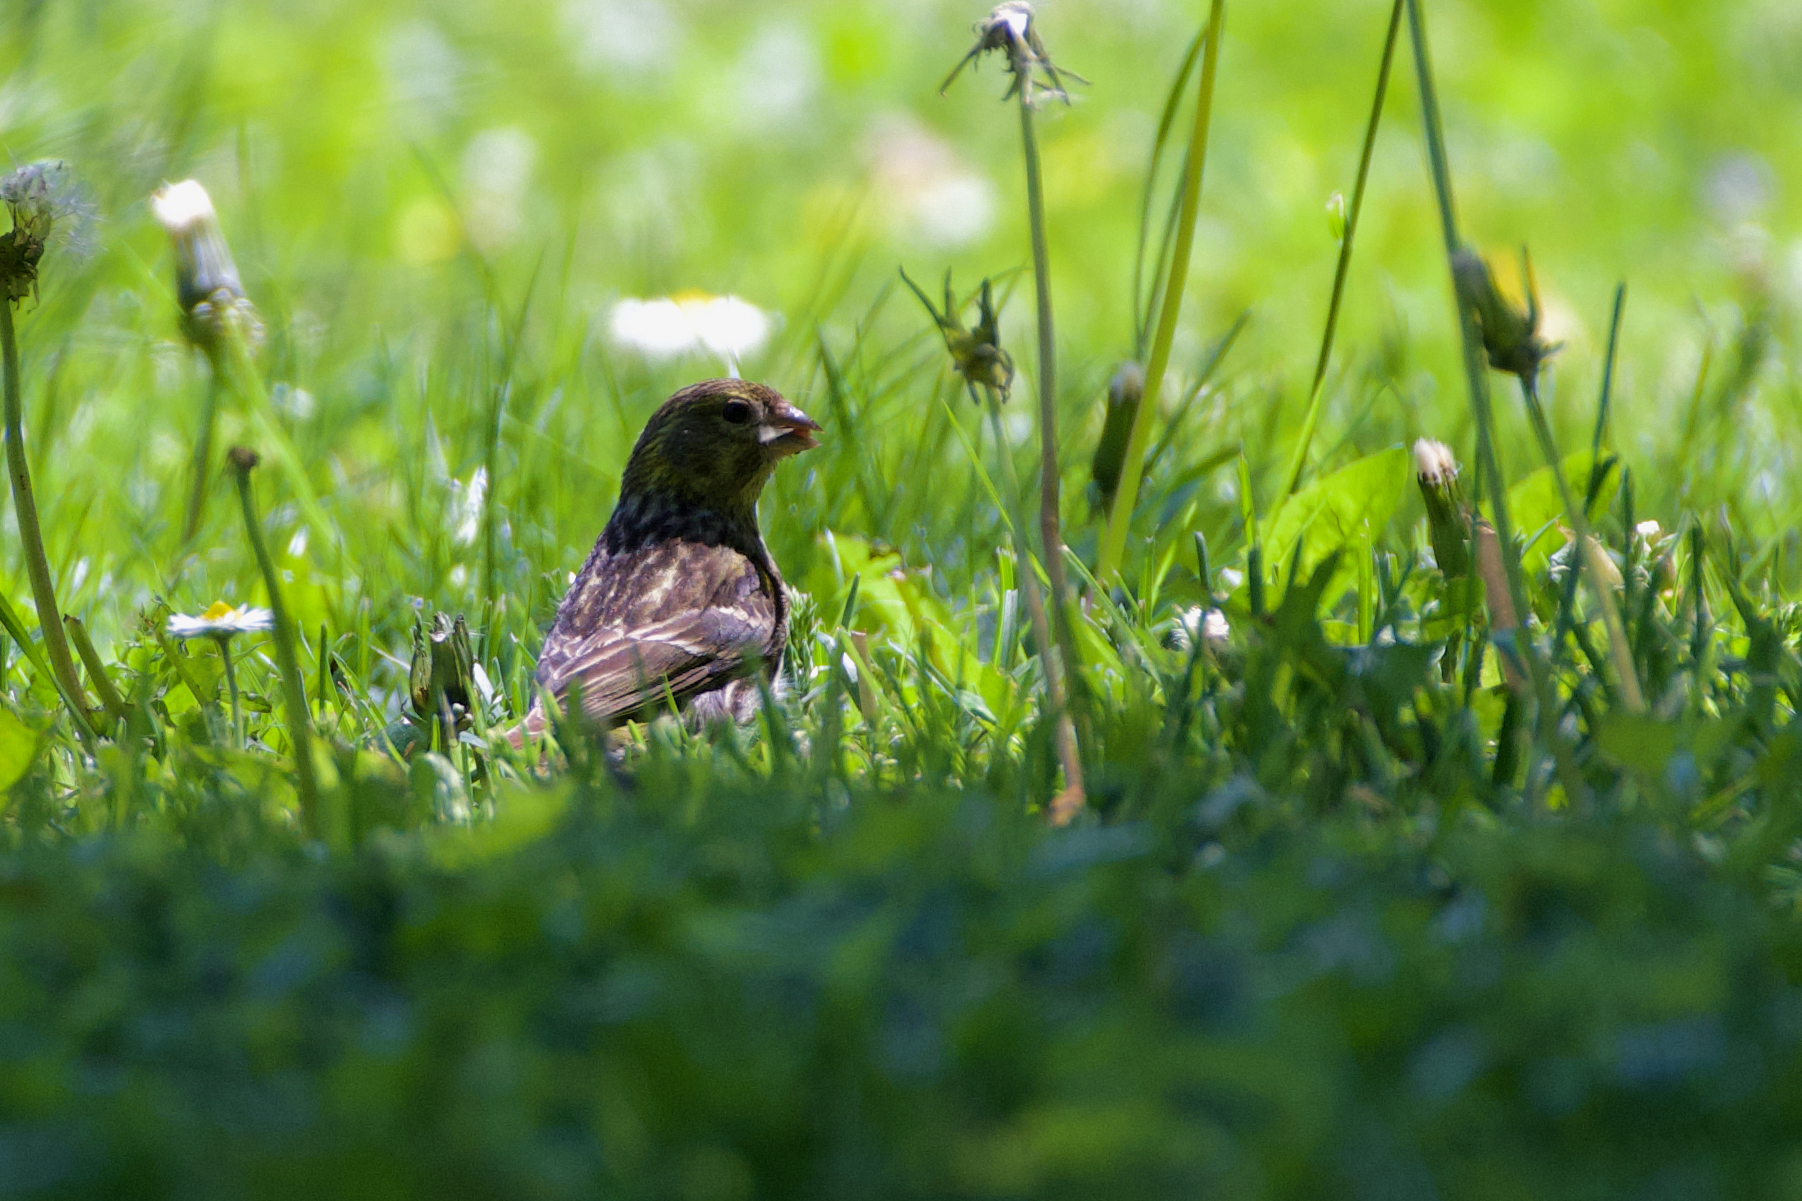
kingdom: Animalia
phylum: Chordata
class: Aves
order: Passeriformes
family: Fringillidae
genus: Serinus
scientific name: Serinus serinus
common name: European serin
